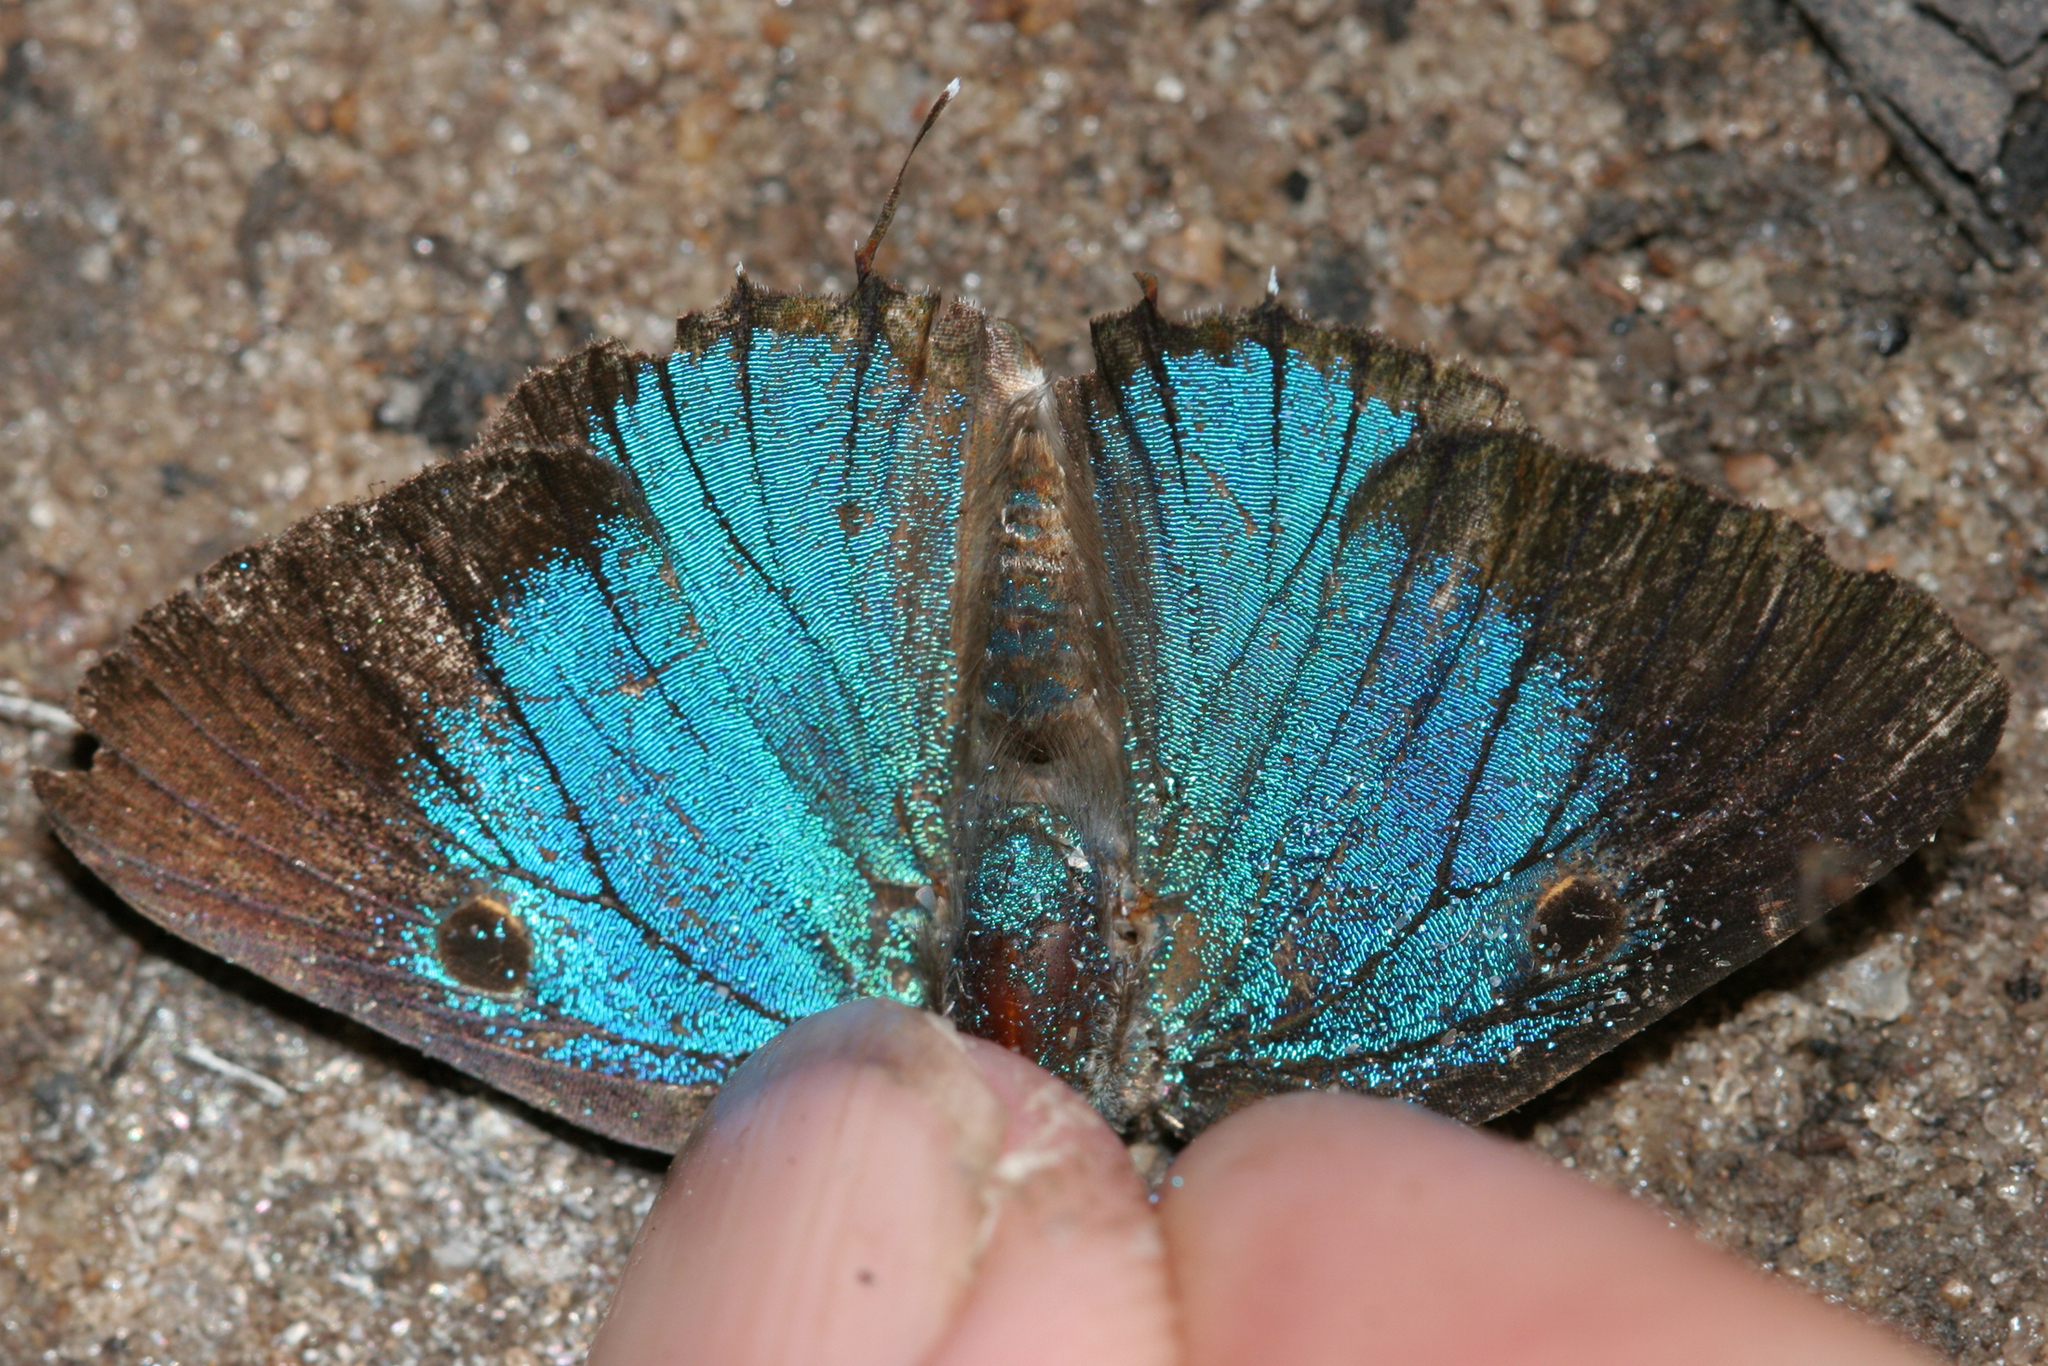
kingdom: Animalia
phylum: Arthropoda
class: Insecta
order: Lepidoptera
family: Lycaenidae
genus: Thecla
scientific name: Thecla essus
